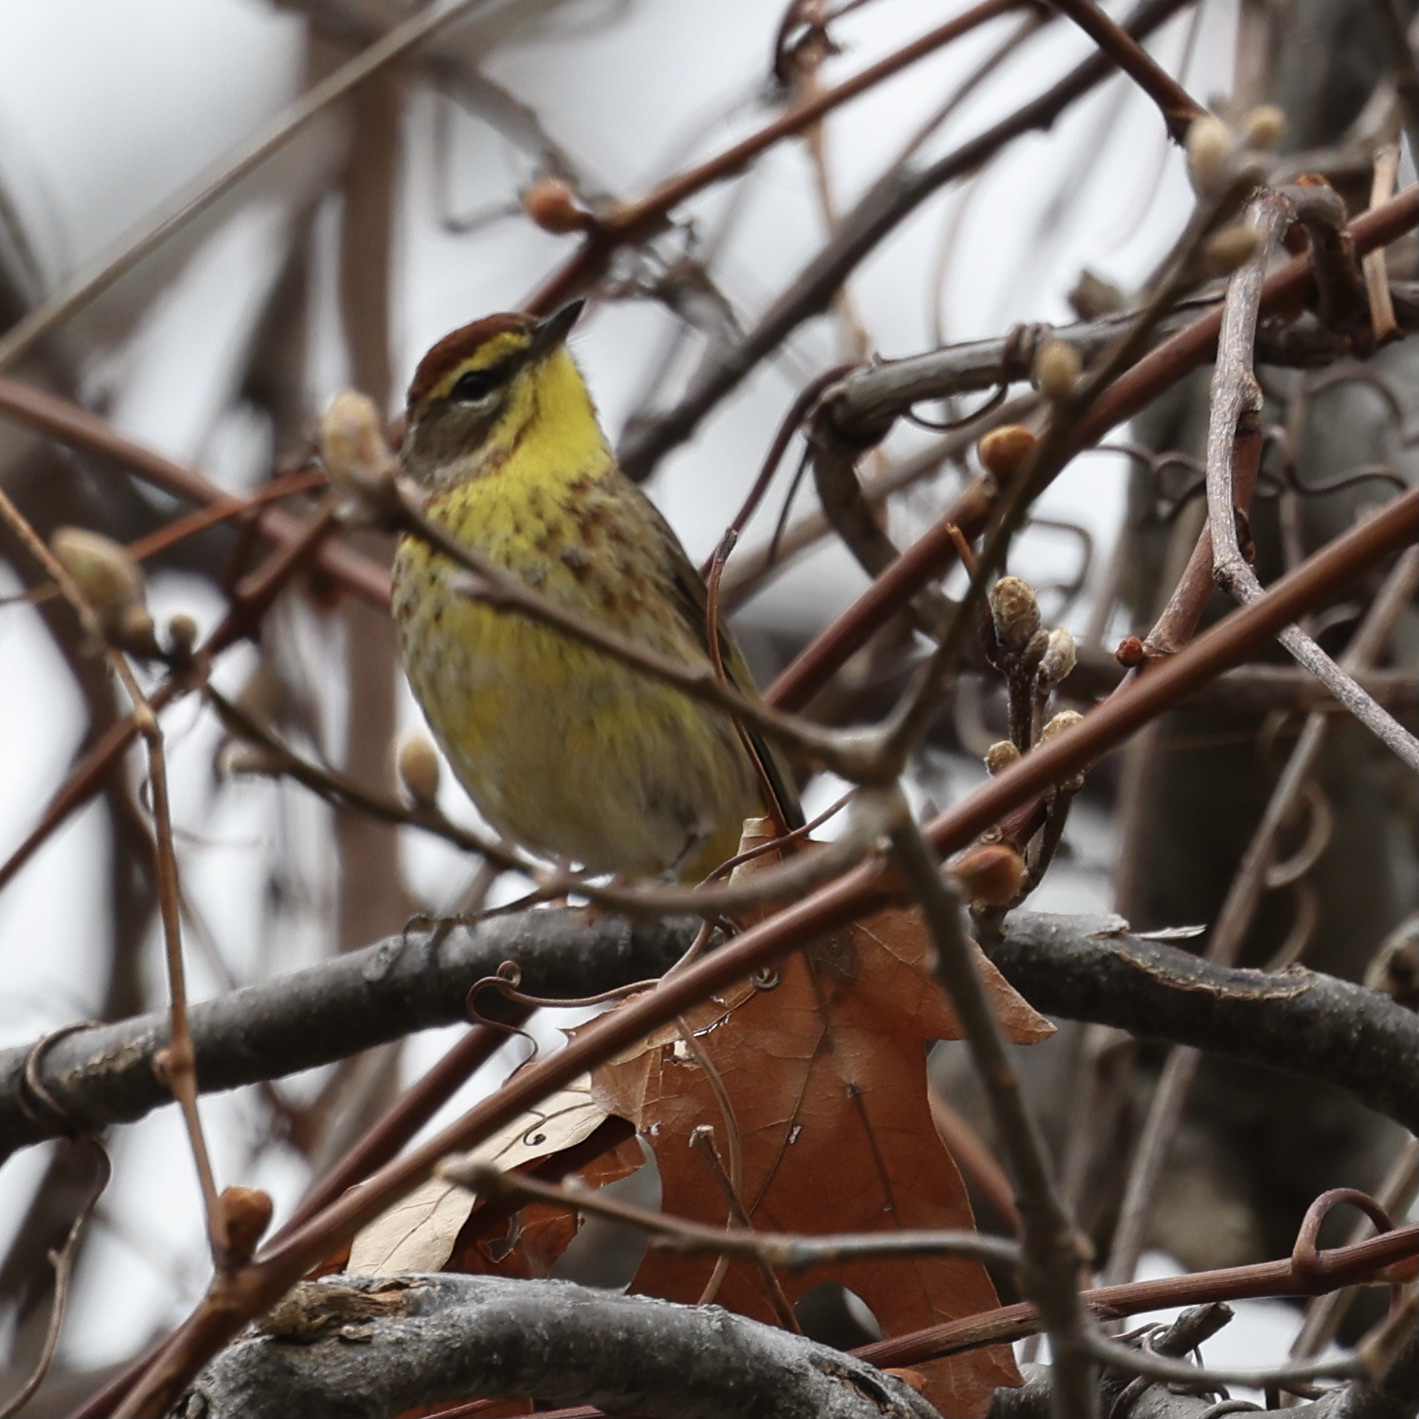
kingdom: Animalia
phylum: Chordata
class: Aves
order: Passeriformes
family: Parulidae
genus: Setophaga
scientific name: Setophaga palmarum
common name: Palm warbler
